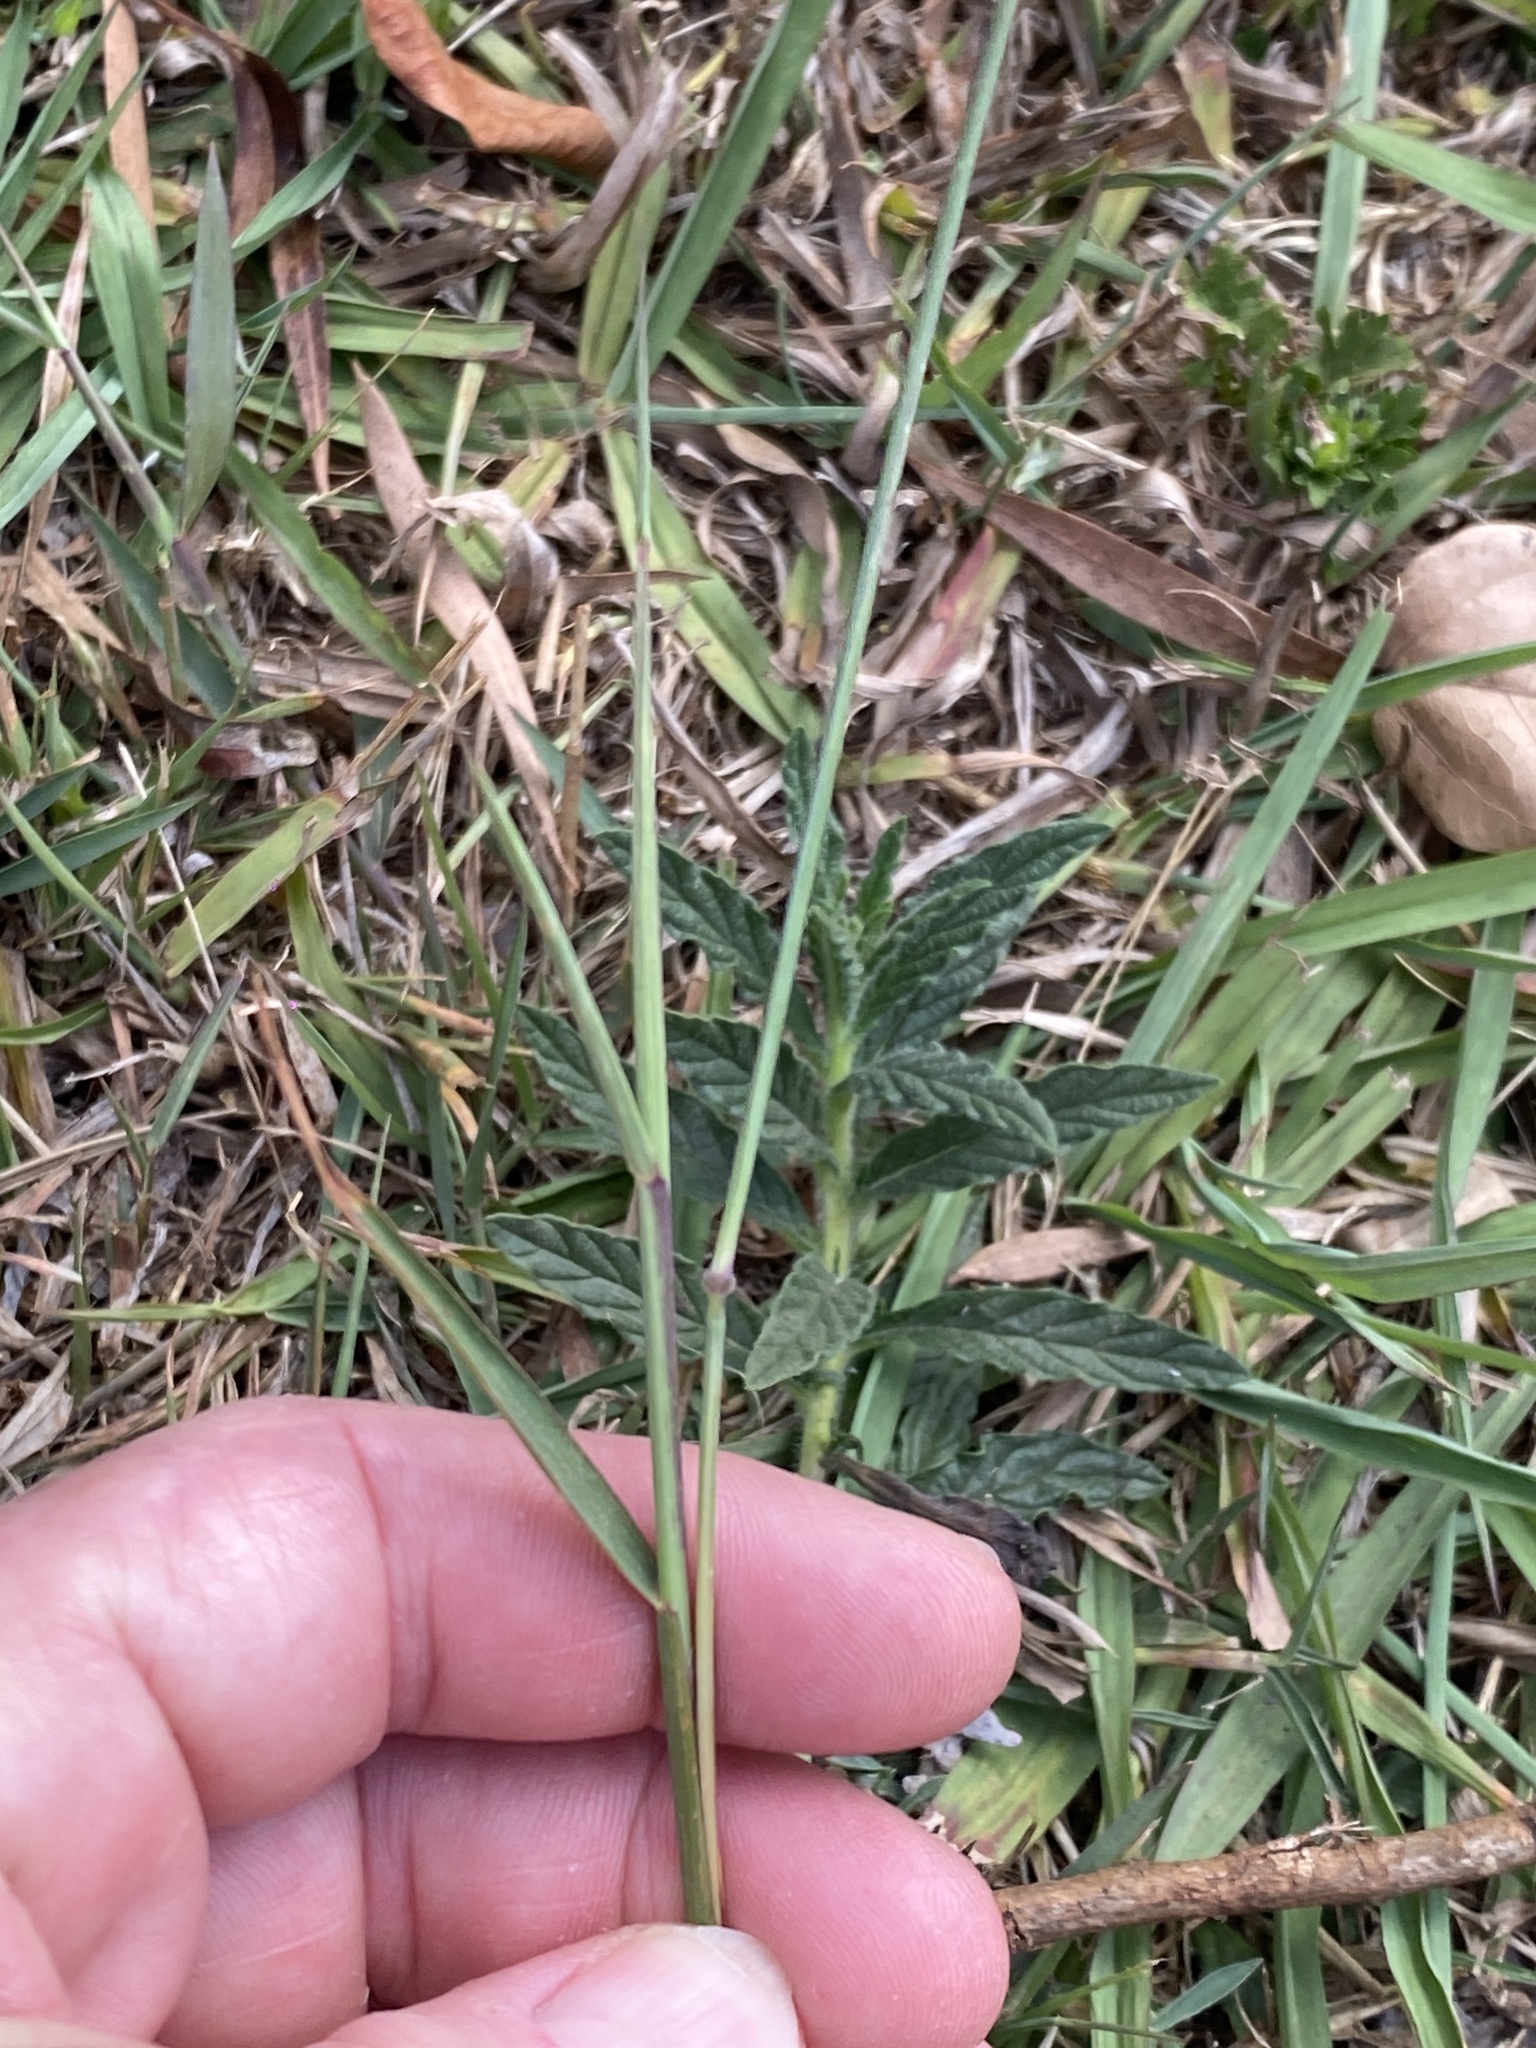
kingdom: Plantae
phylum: Tracheophyta
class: Liliopsida
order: Poales
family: Poaceae
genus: Melinis
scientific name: Melinis repens
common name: Rose natal grass
